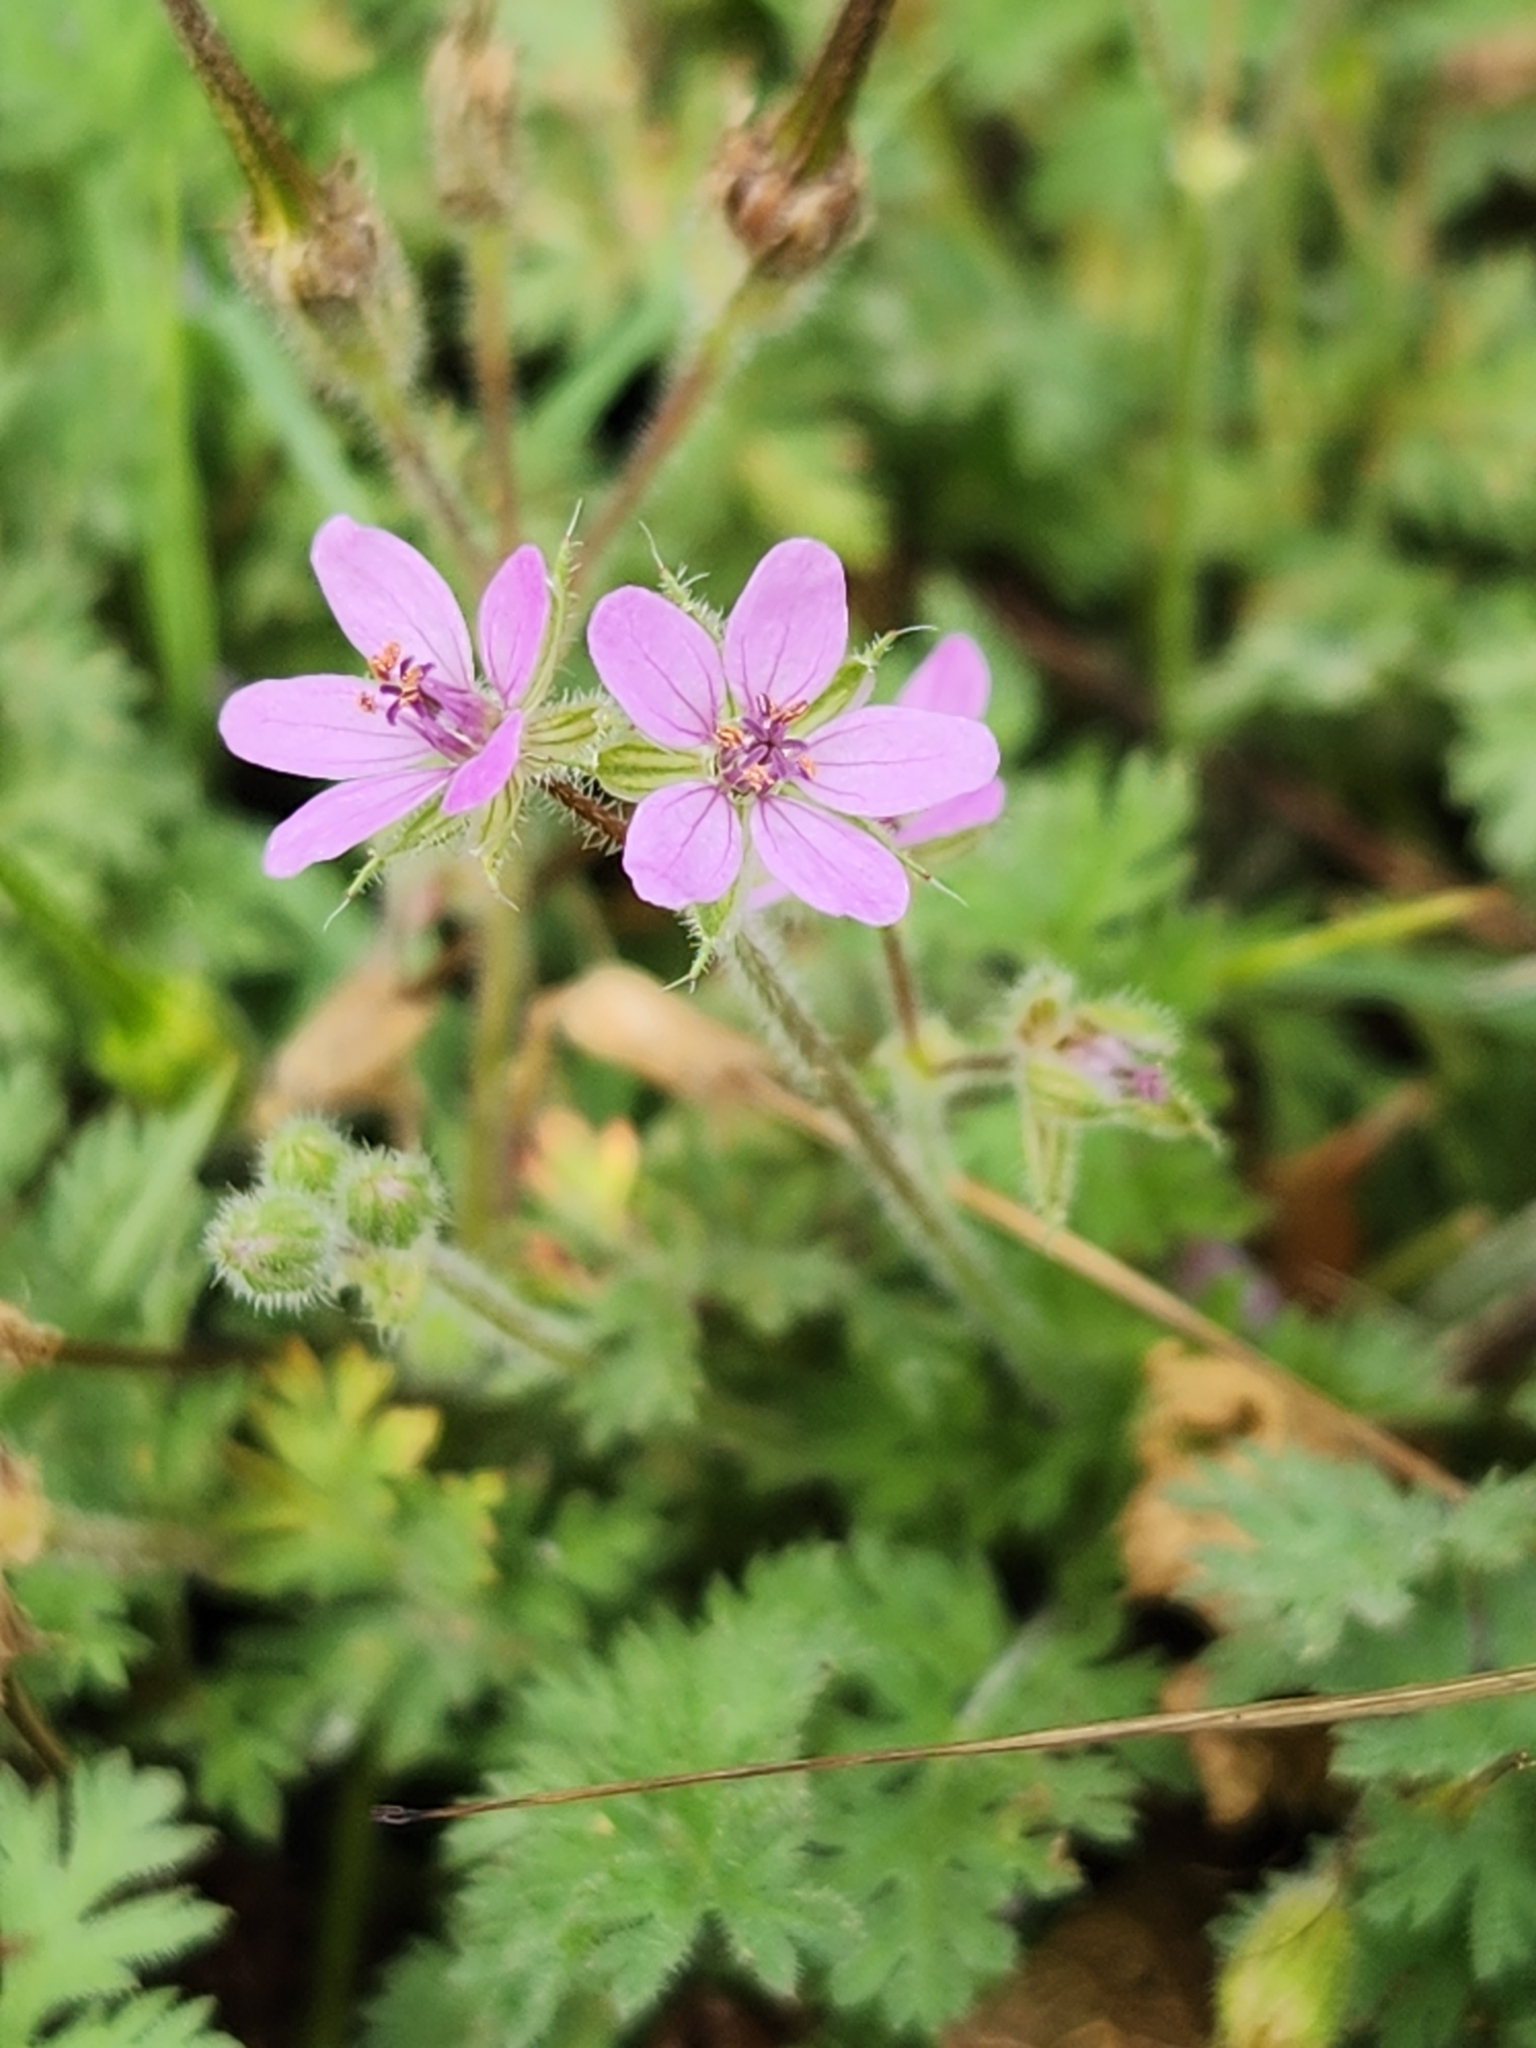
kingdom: Plantae
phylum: Tracheophyta
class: Magnoliopsida
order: Geraniales
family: Geraniaceae
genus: Erodium
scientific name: Erodium cicutarium
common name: Common stork's-bill
